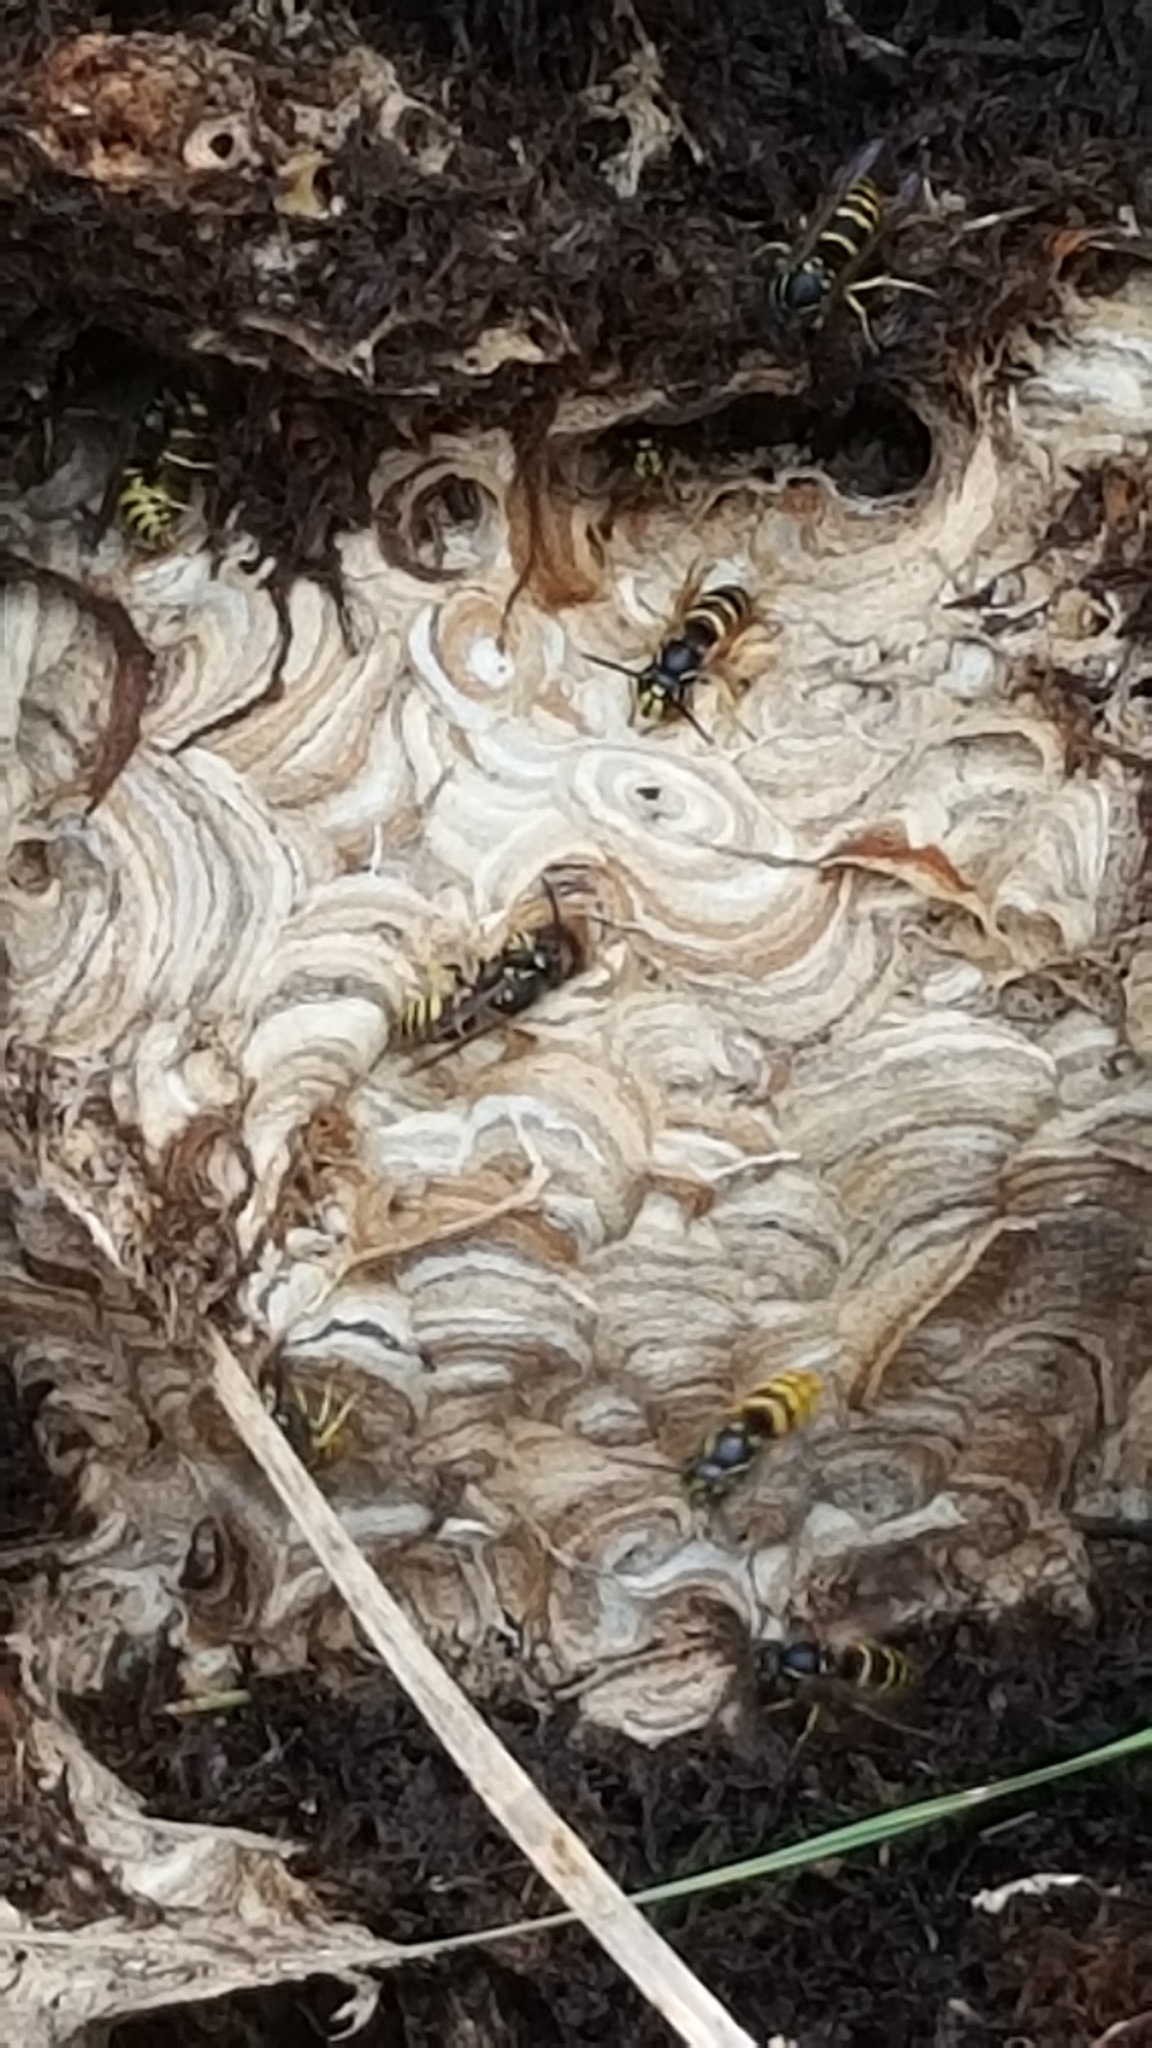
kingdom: Animalia
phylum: Arthropoda
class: Insecta
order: Hymenoptera
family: Vespidae
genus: Vespula
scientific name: Vespula alascensis
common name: Alaska yellowjacket
